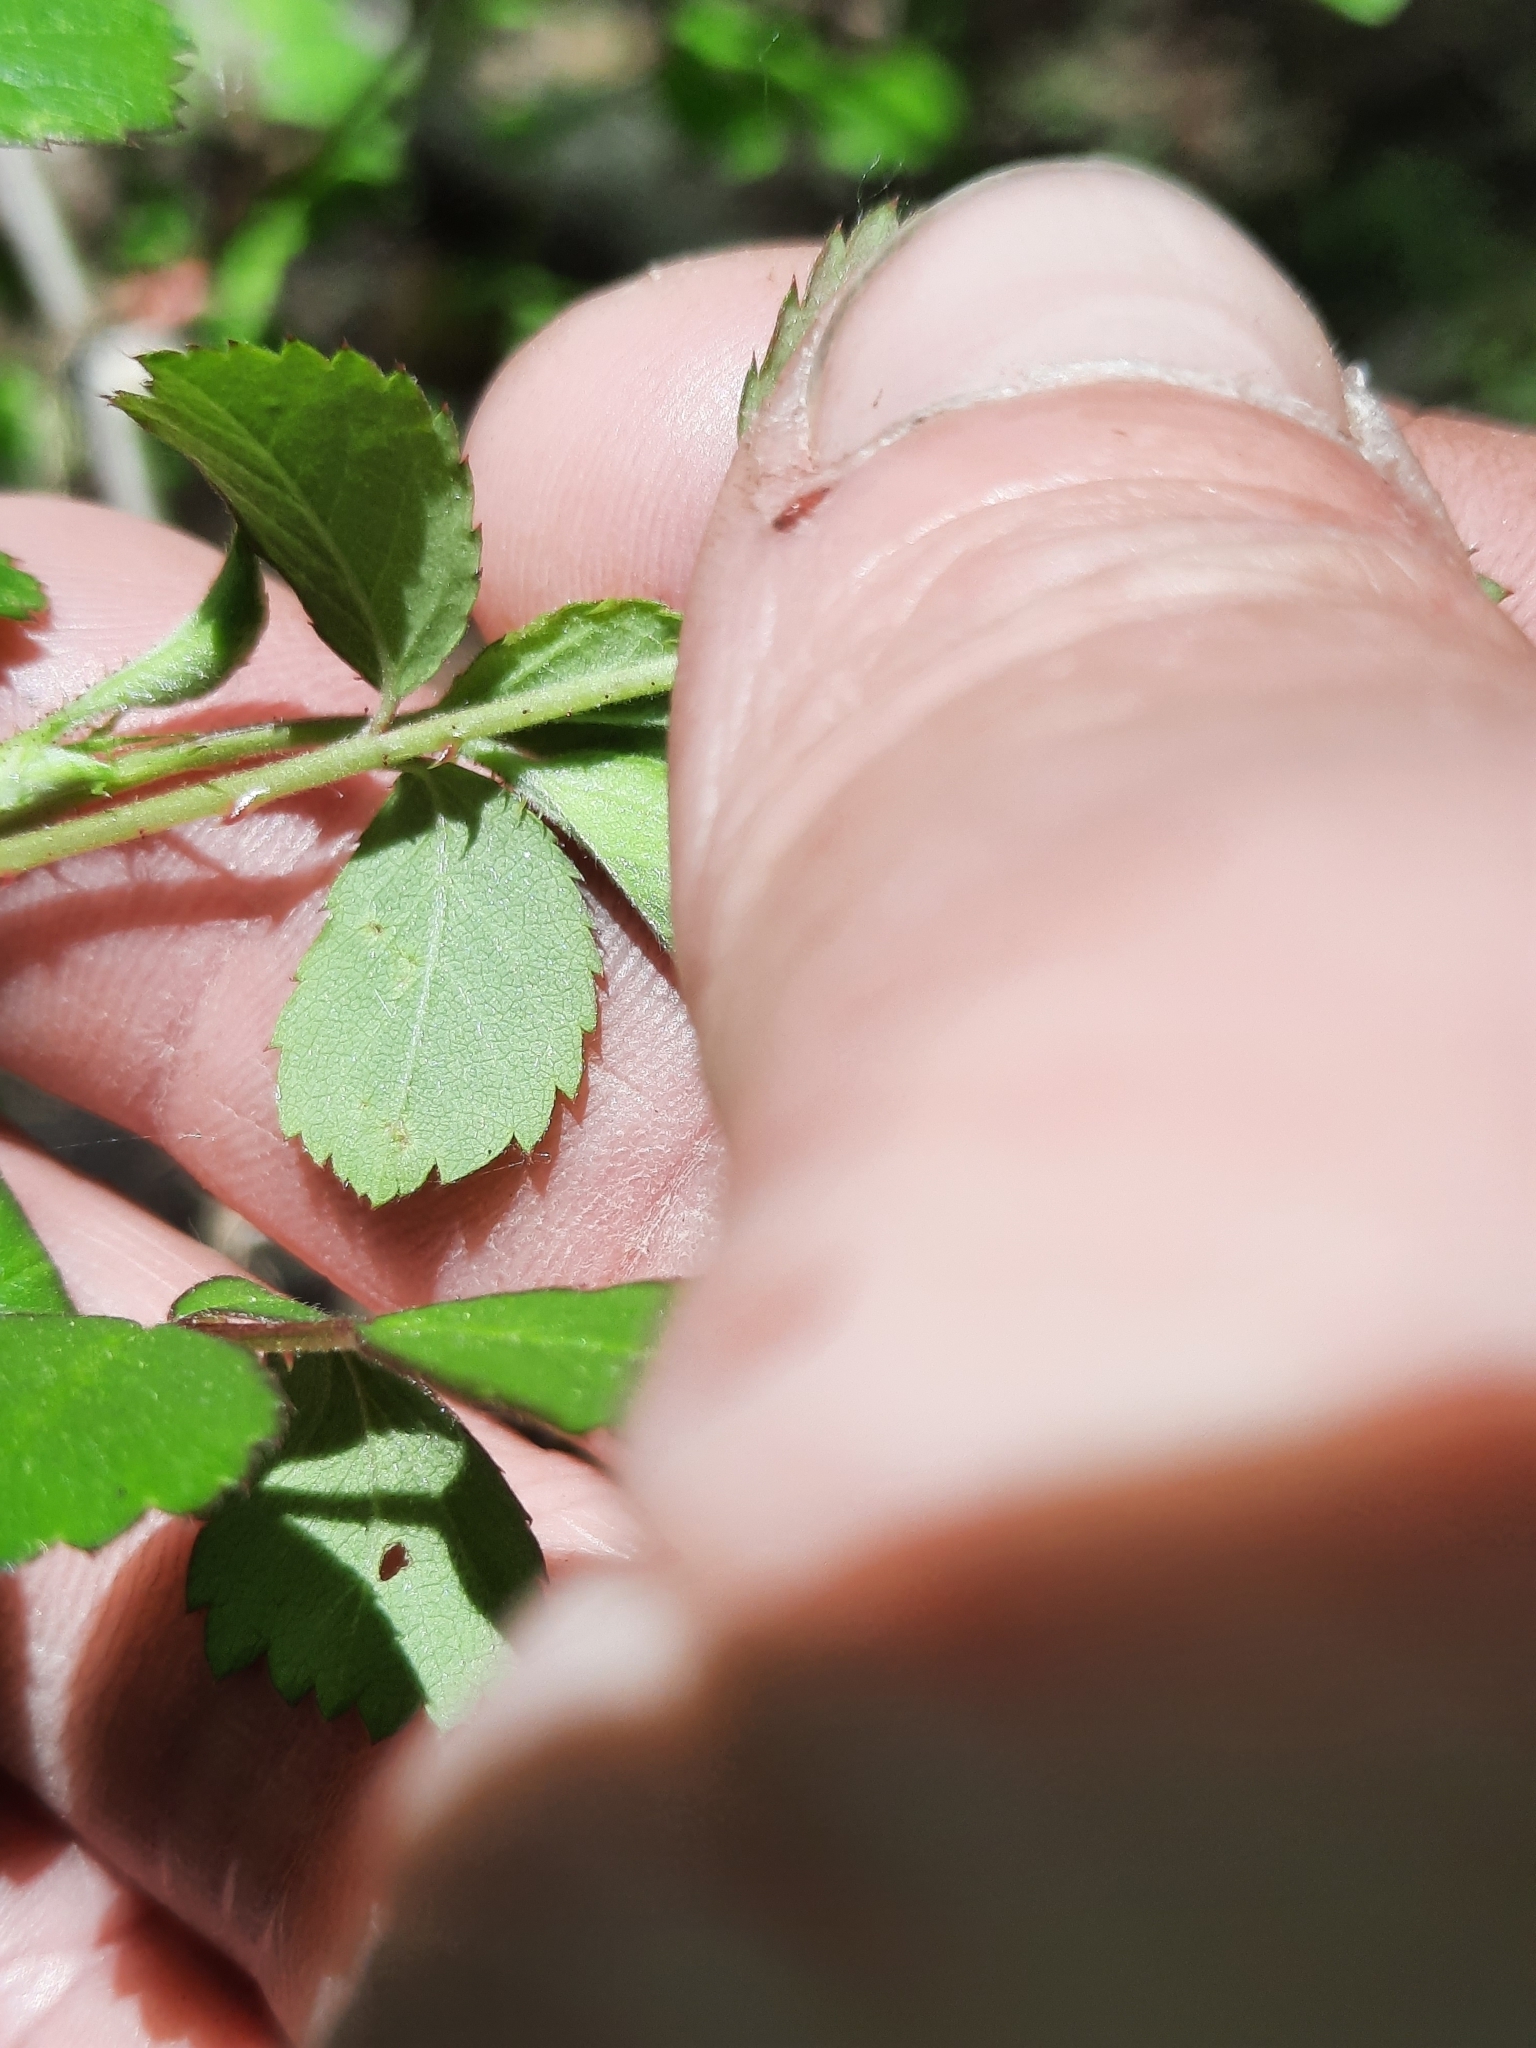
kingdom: Plantae
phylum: Tracheophyta
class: Magnoliopsida
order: Rosales
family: Rosaceae
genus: Rosa
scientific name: Rosa multiflora
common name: Multiflora rose
